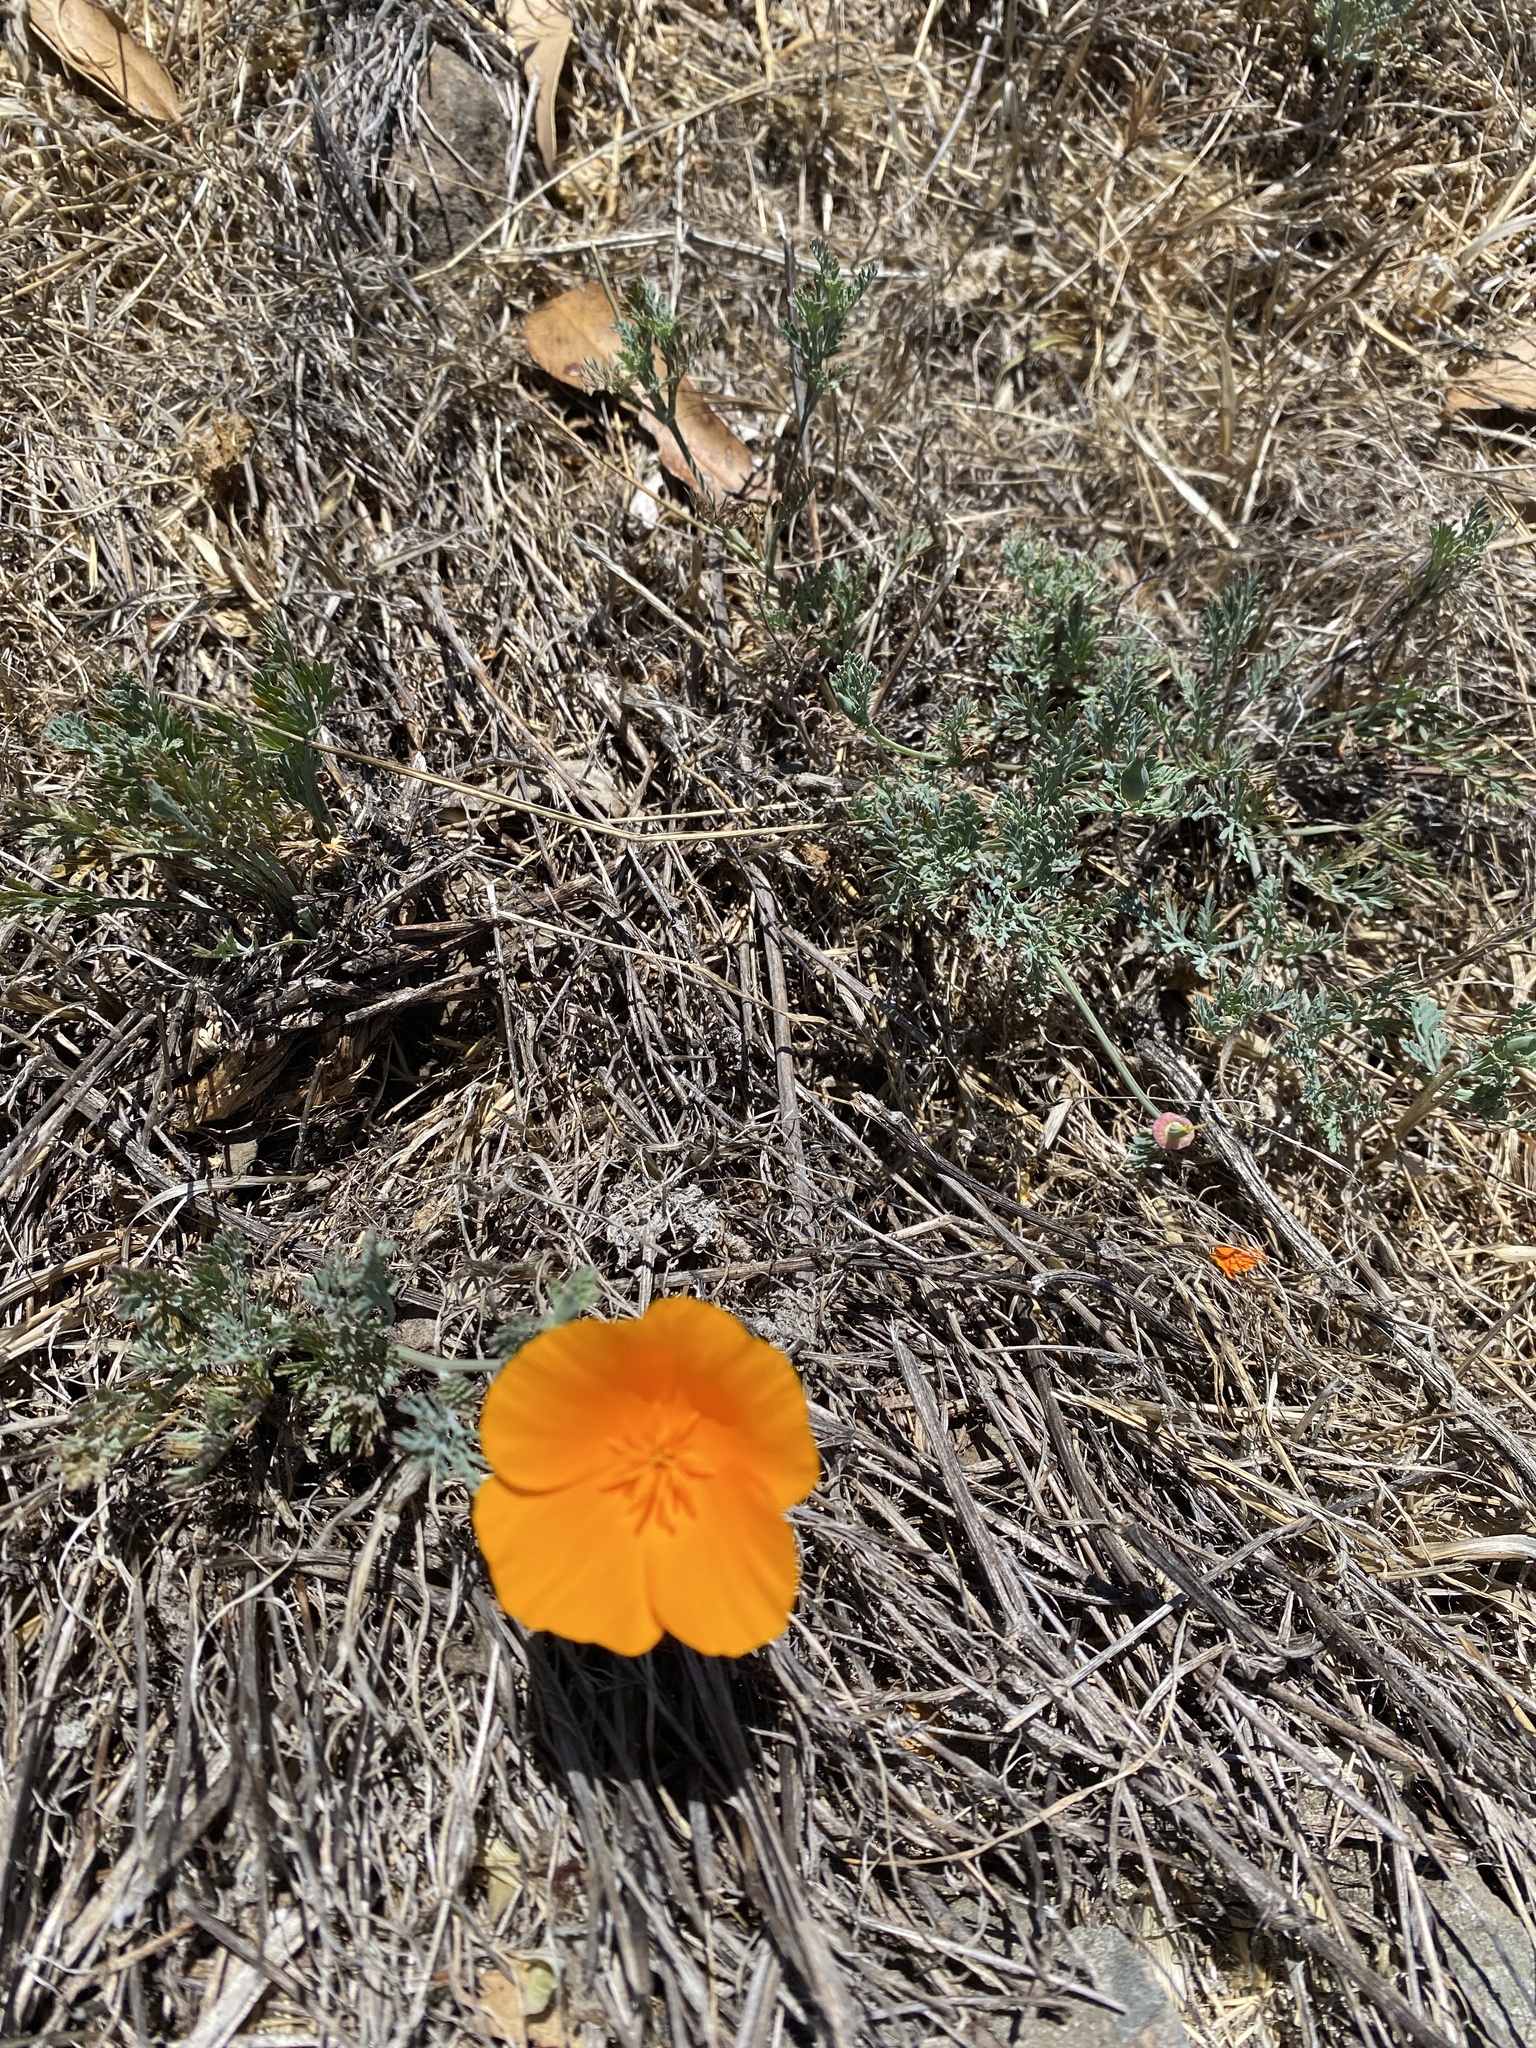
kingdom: Plantae
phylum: Tracheophyta
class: Magnoliopsida
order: Ranunculales
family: Papaveraceae
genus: Eschscholzia
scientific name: Eschscholzia californica
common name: California poppy
